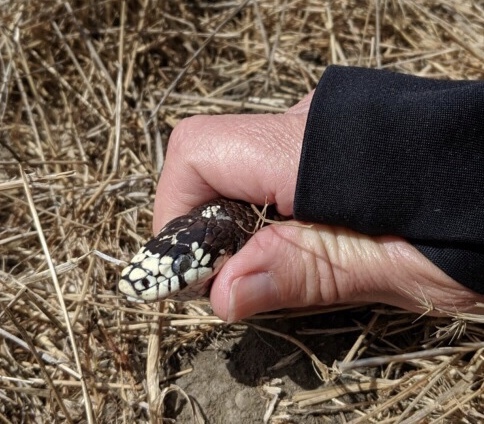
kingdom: Animalia
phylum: Chordata
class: Squamata
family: Colubridae
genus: Lampropeltis
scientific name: Lampropeltis californiae
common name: California kingsnake
